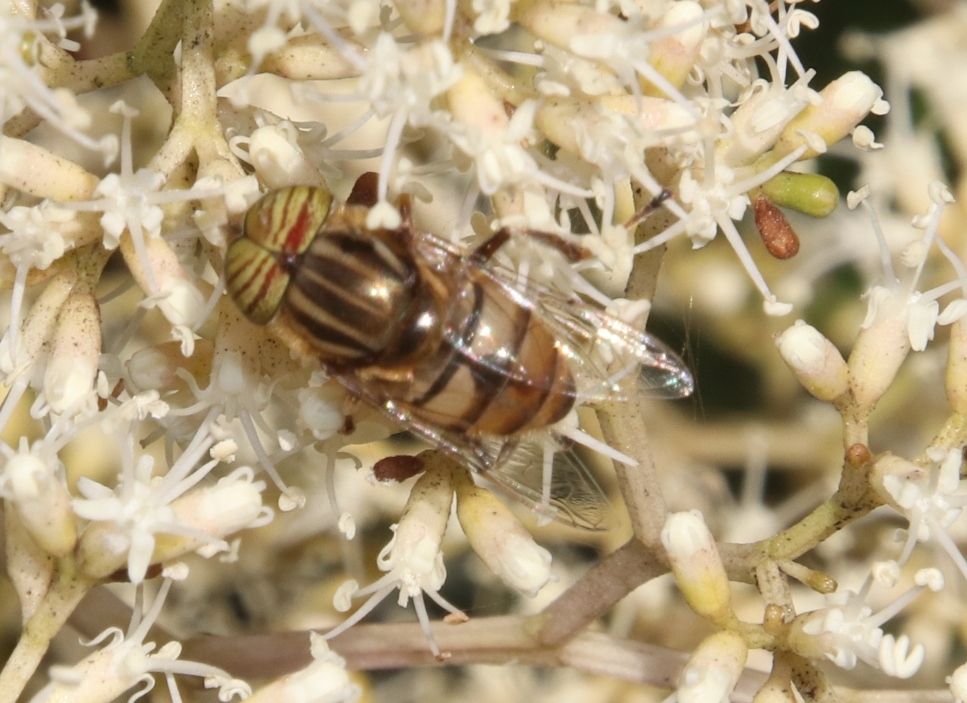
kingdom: Animalia
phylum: Arthropoda
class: Insecta
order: Diptera
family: Syrphidae
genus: Eristalinus
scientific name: Eristalinus barclayi
